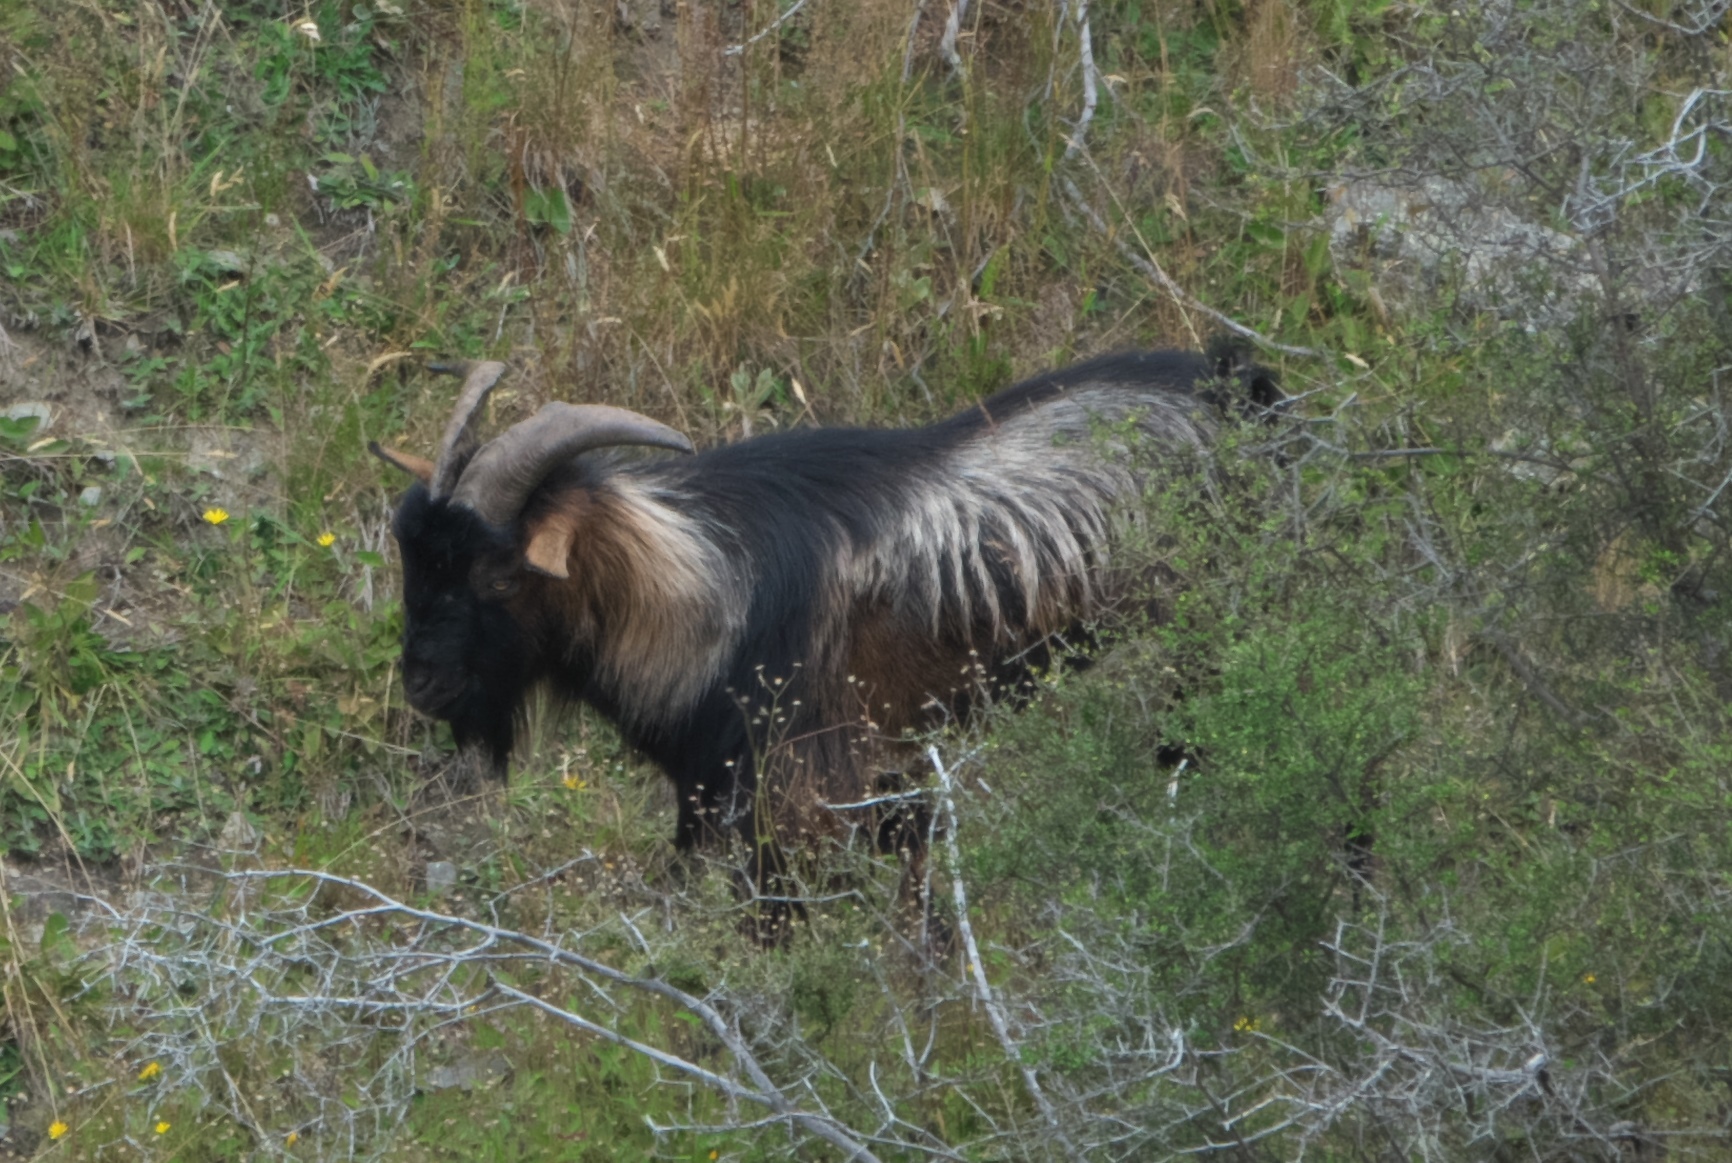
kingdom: Animalia
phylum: Chordata
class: Mammalia
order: Artiodactyla
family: Bovidae
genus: Capra
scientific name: Capra hircus
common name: Domestic goat
